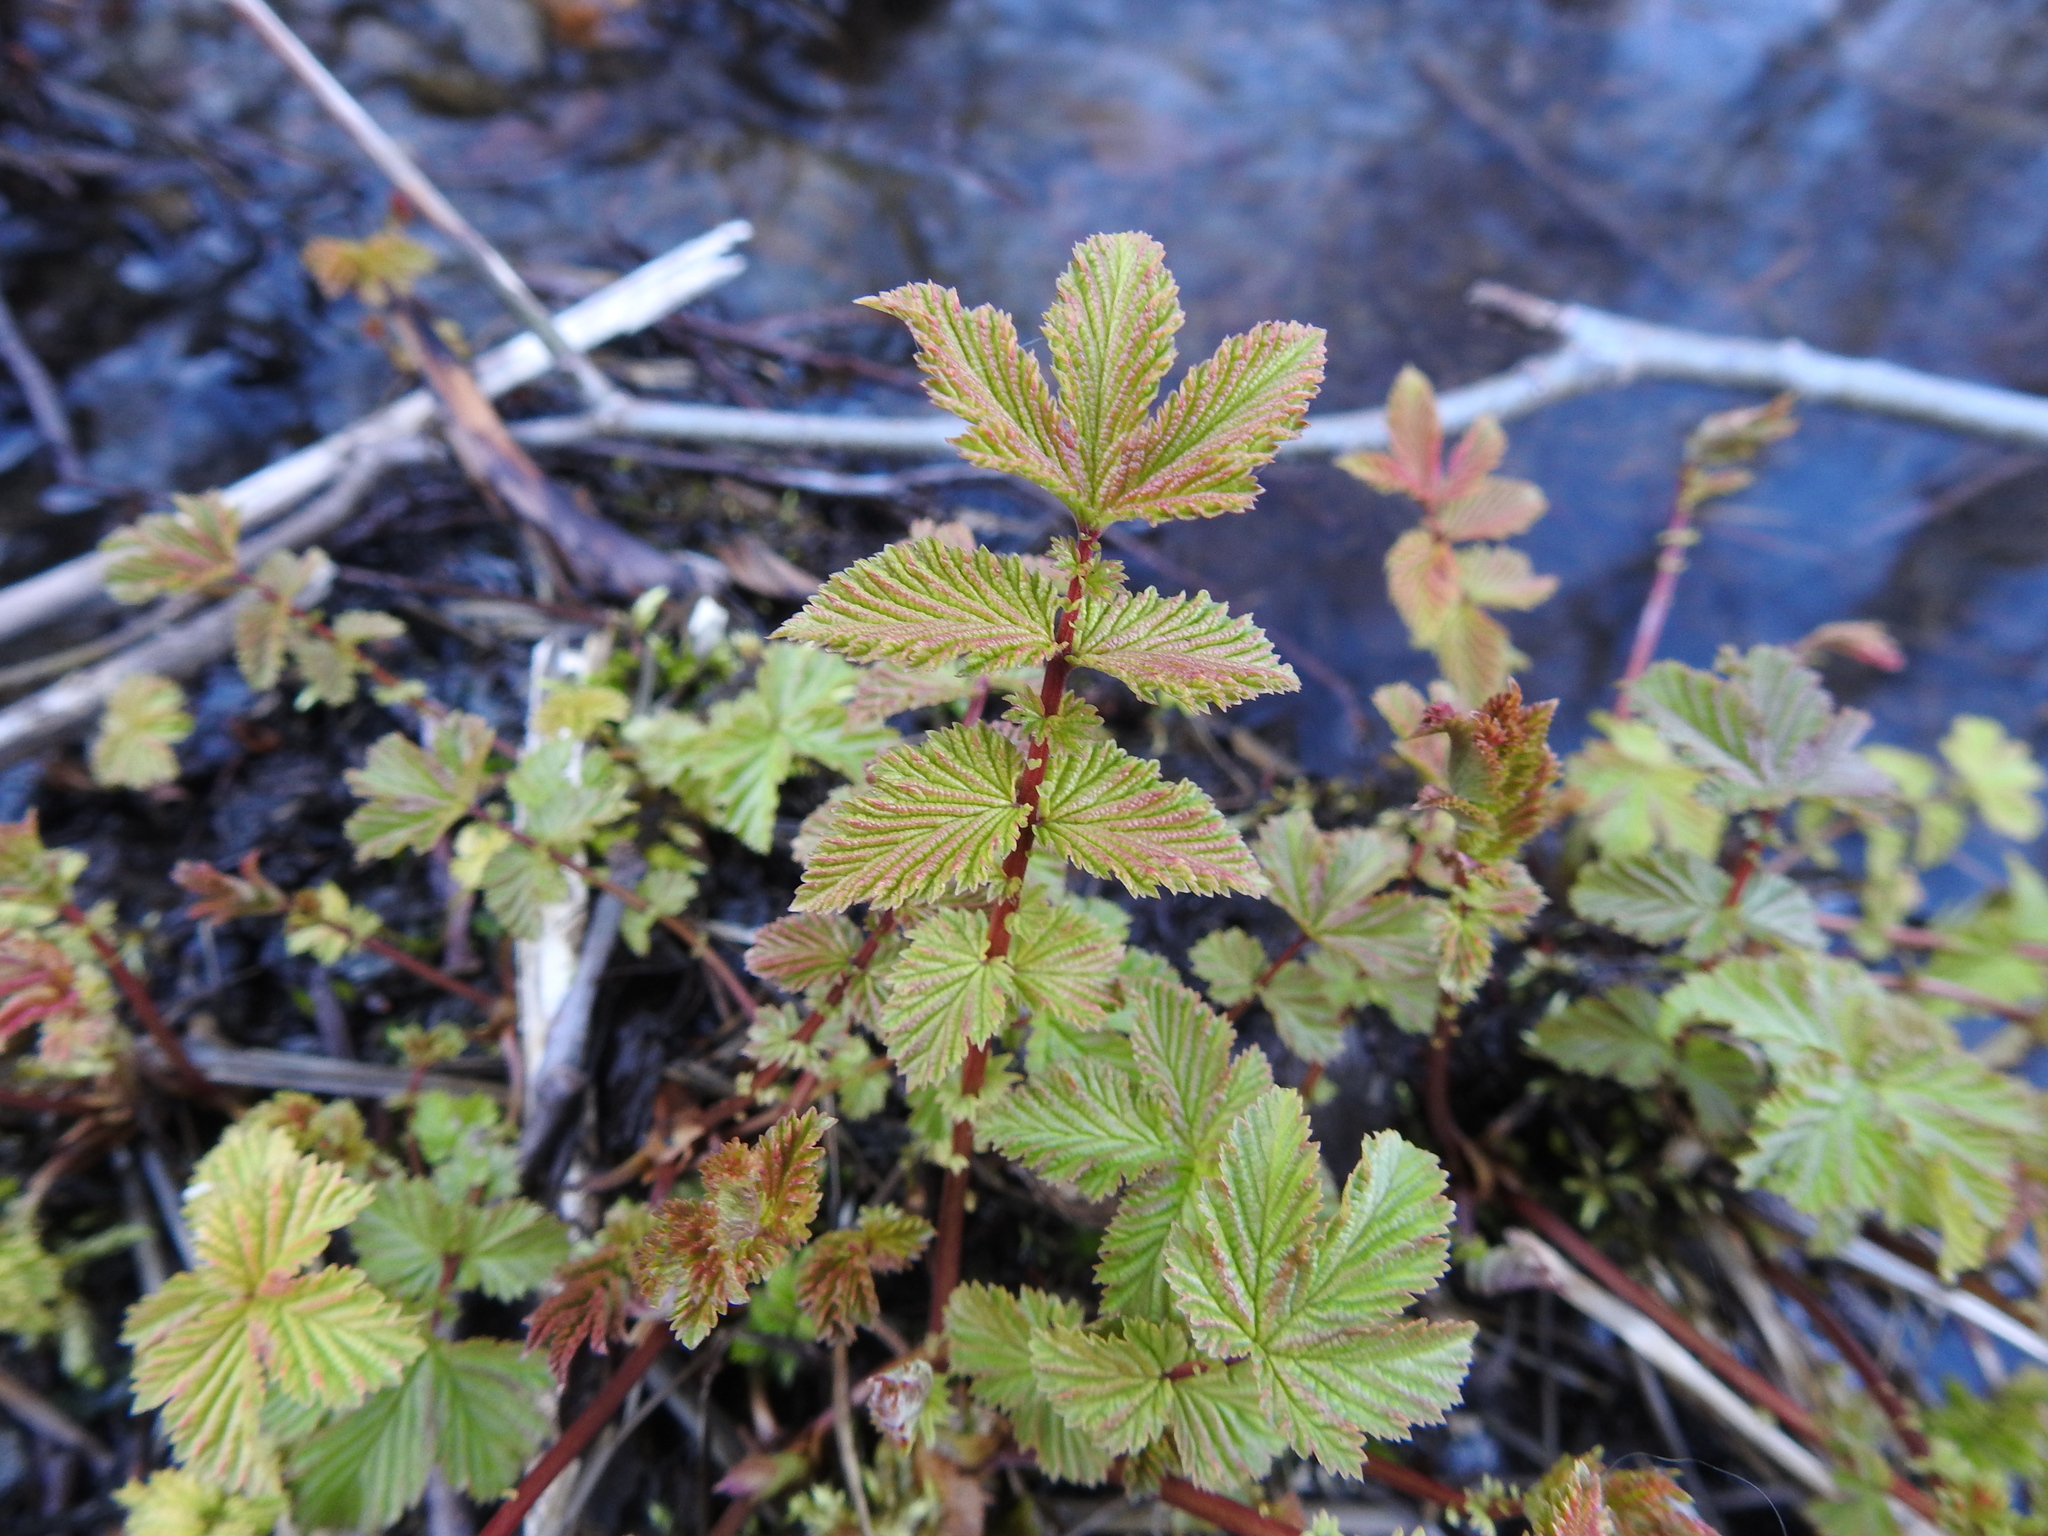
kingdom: Plantae
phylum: Tracheophyta
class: Magnoliopsida
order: Rosales
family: Rosaceae
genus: Filipendula
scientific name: Filipendula ulmaria
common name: Meadowsweet
